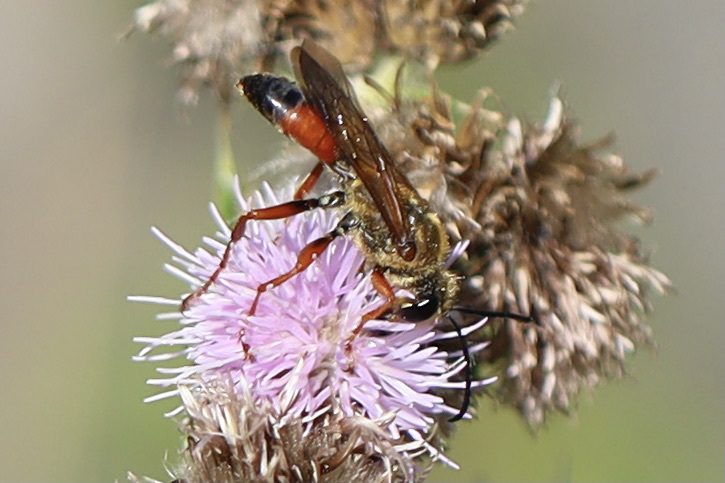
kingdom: Animalia
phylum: Arthropoda
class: Insecta
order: Hymenoptera
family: Sphecidae
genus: Sphex
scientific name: Sphex ichneumoneus
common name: Great golden digger wasp
